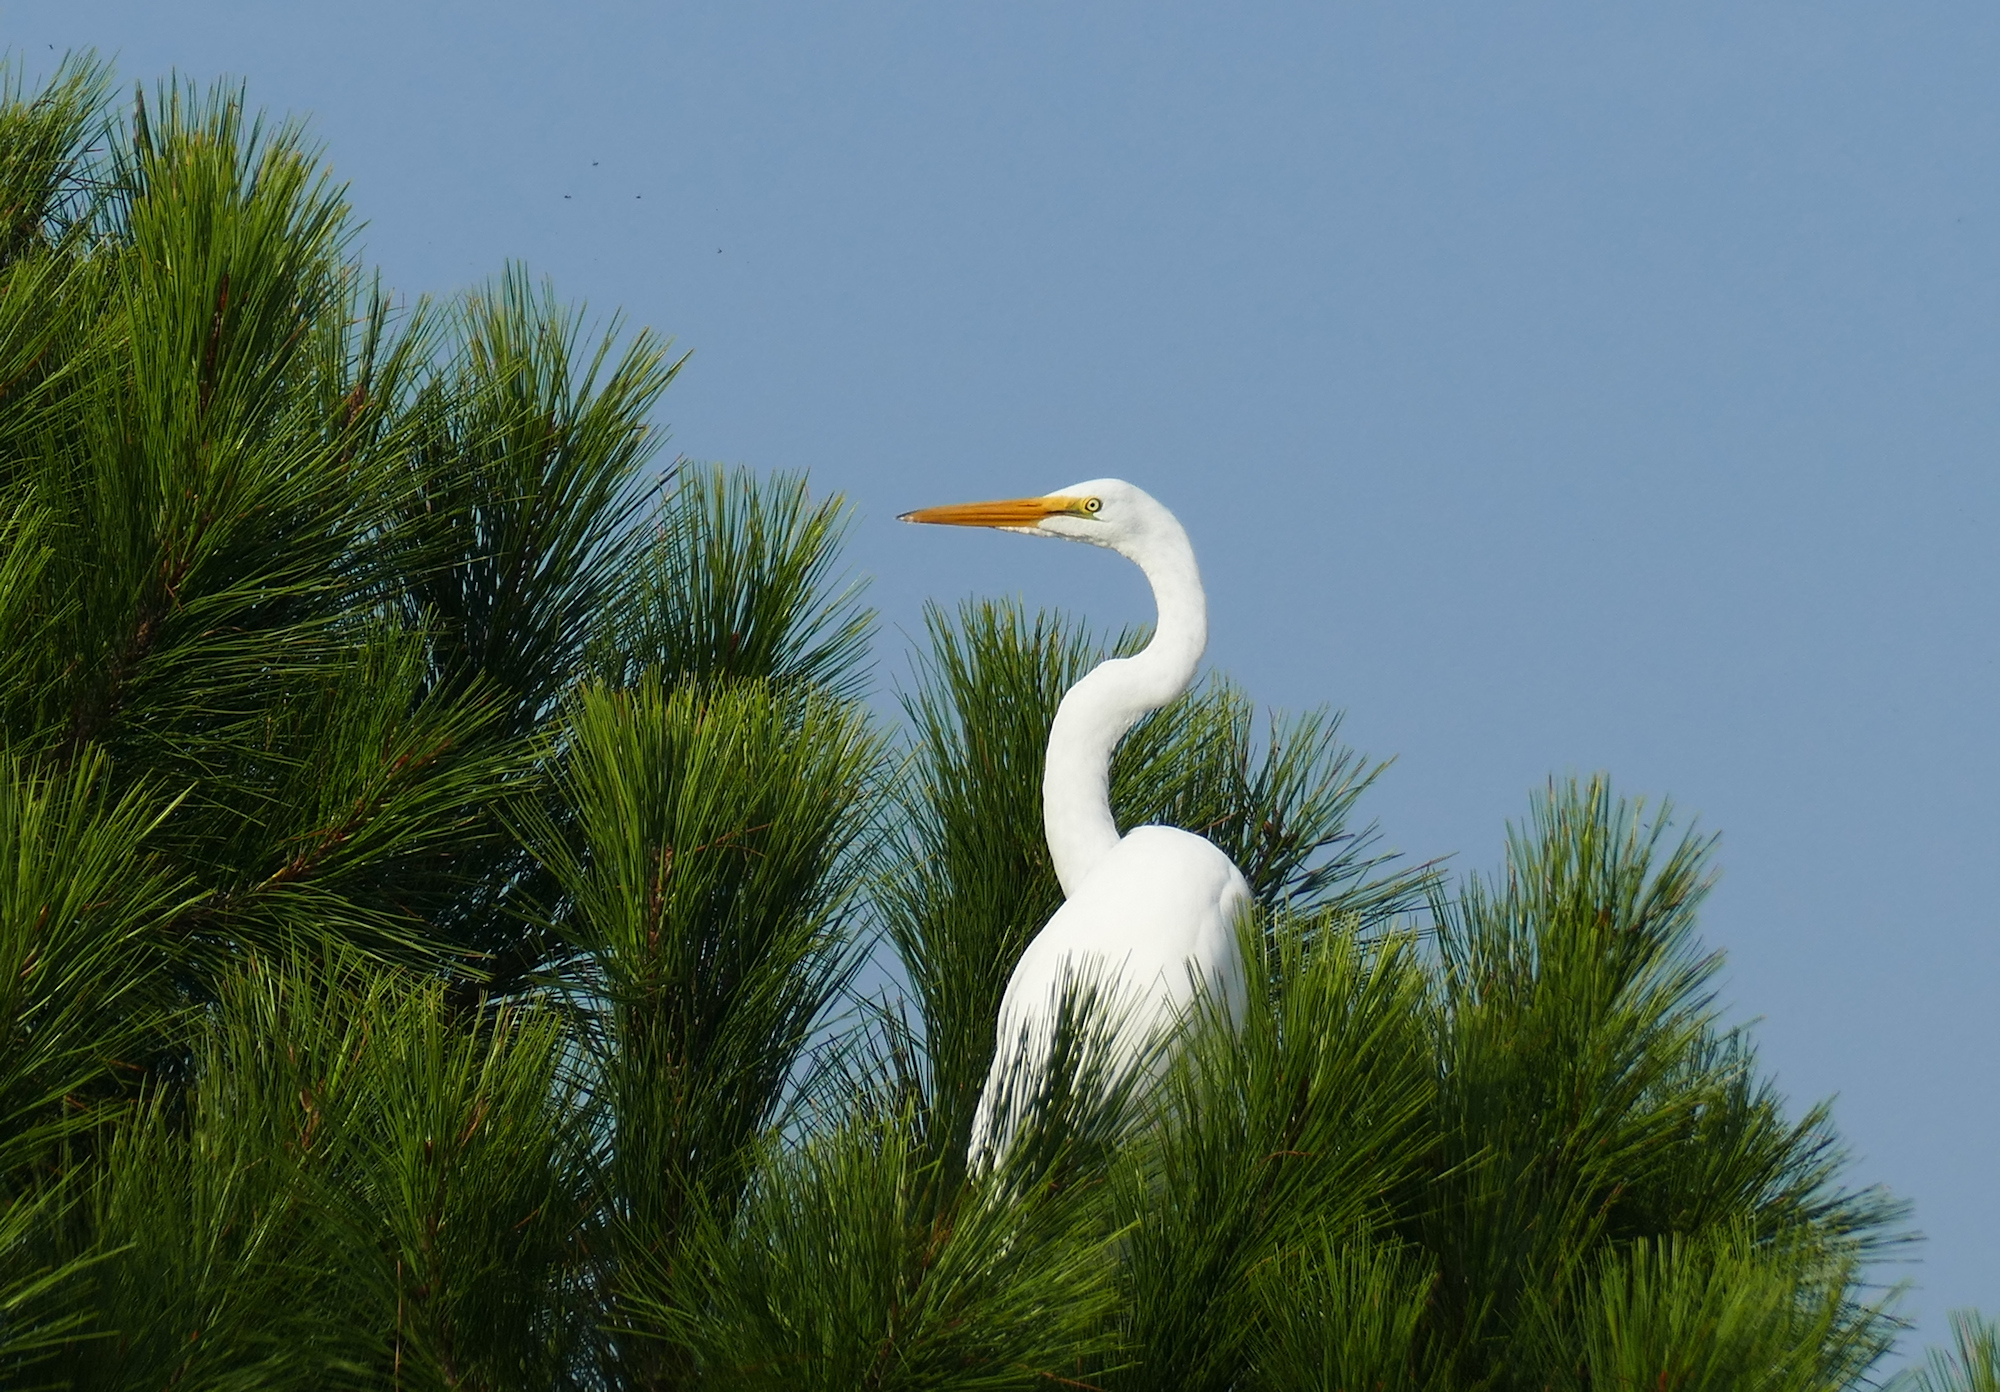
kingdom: Animalia
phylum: Chordata
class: Aves
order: Pelecaniformes
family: Ardeidae
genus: Ardea
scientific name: Ardea alba
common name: Great egret
